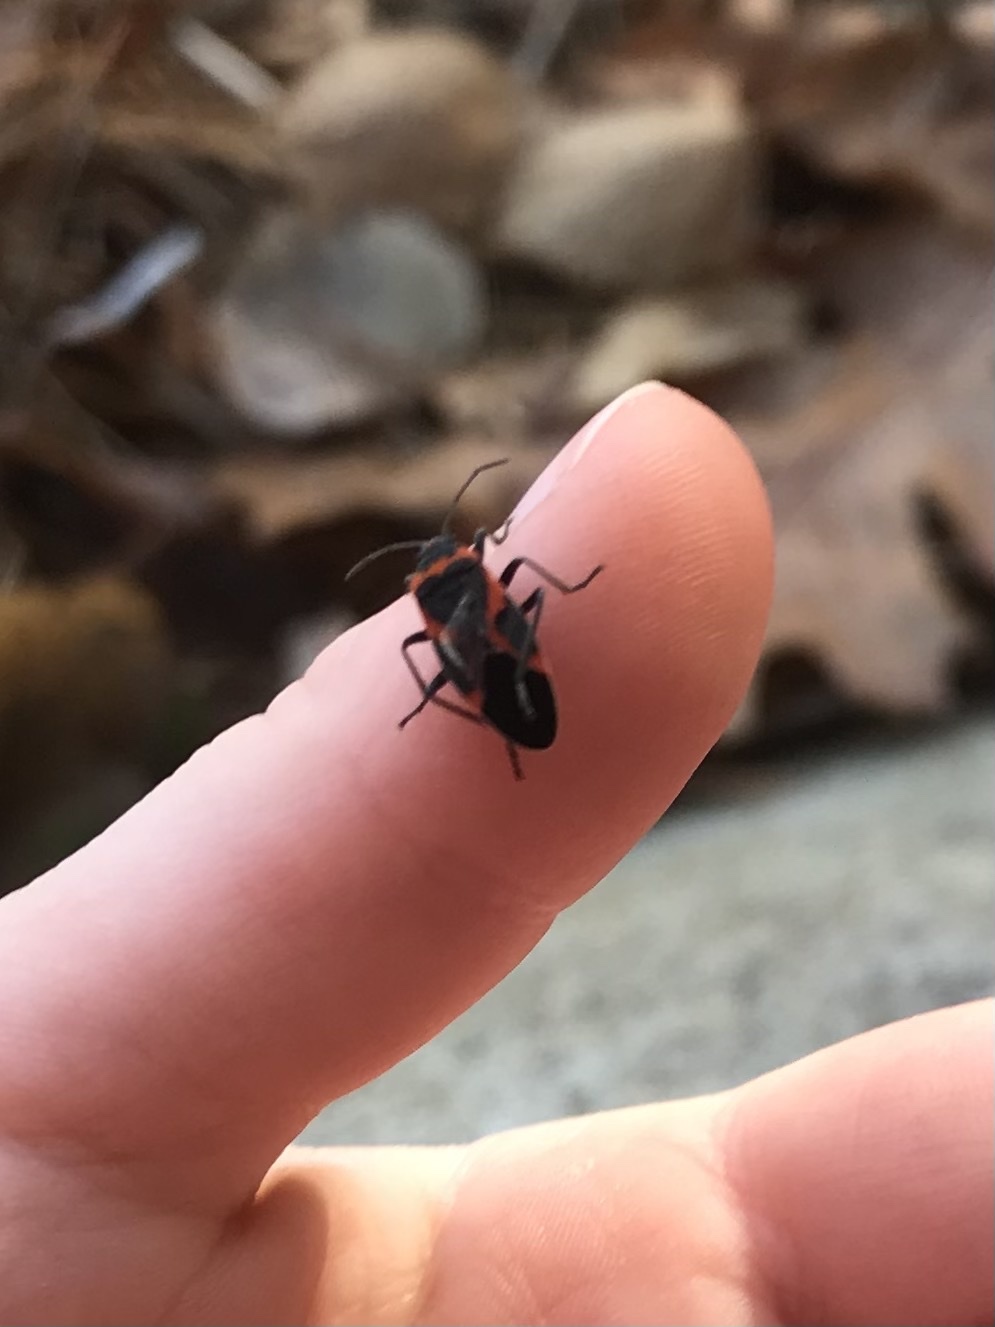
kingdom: Animalia
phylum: Arthropoda
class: Insecta
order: Hemiptera
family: Lygaeidae
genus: Lygaeus
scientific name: Lygaeus kalmii
